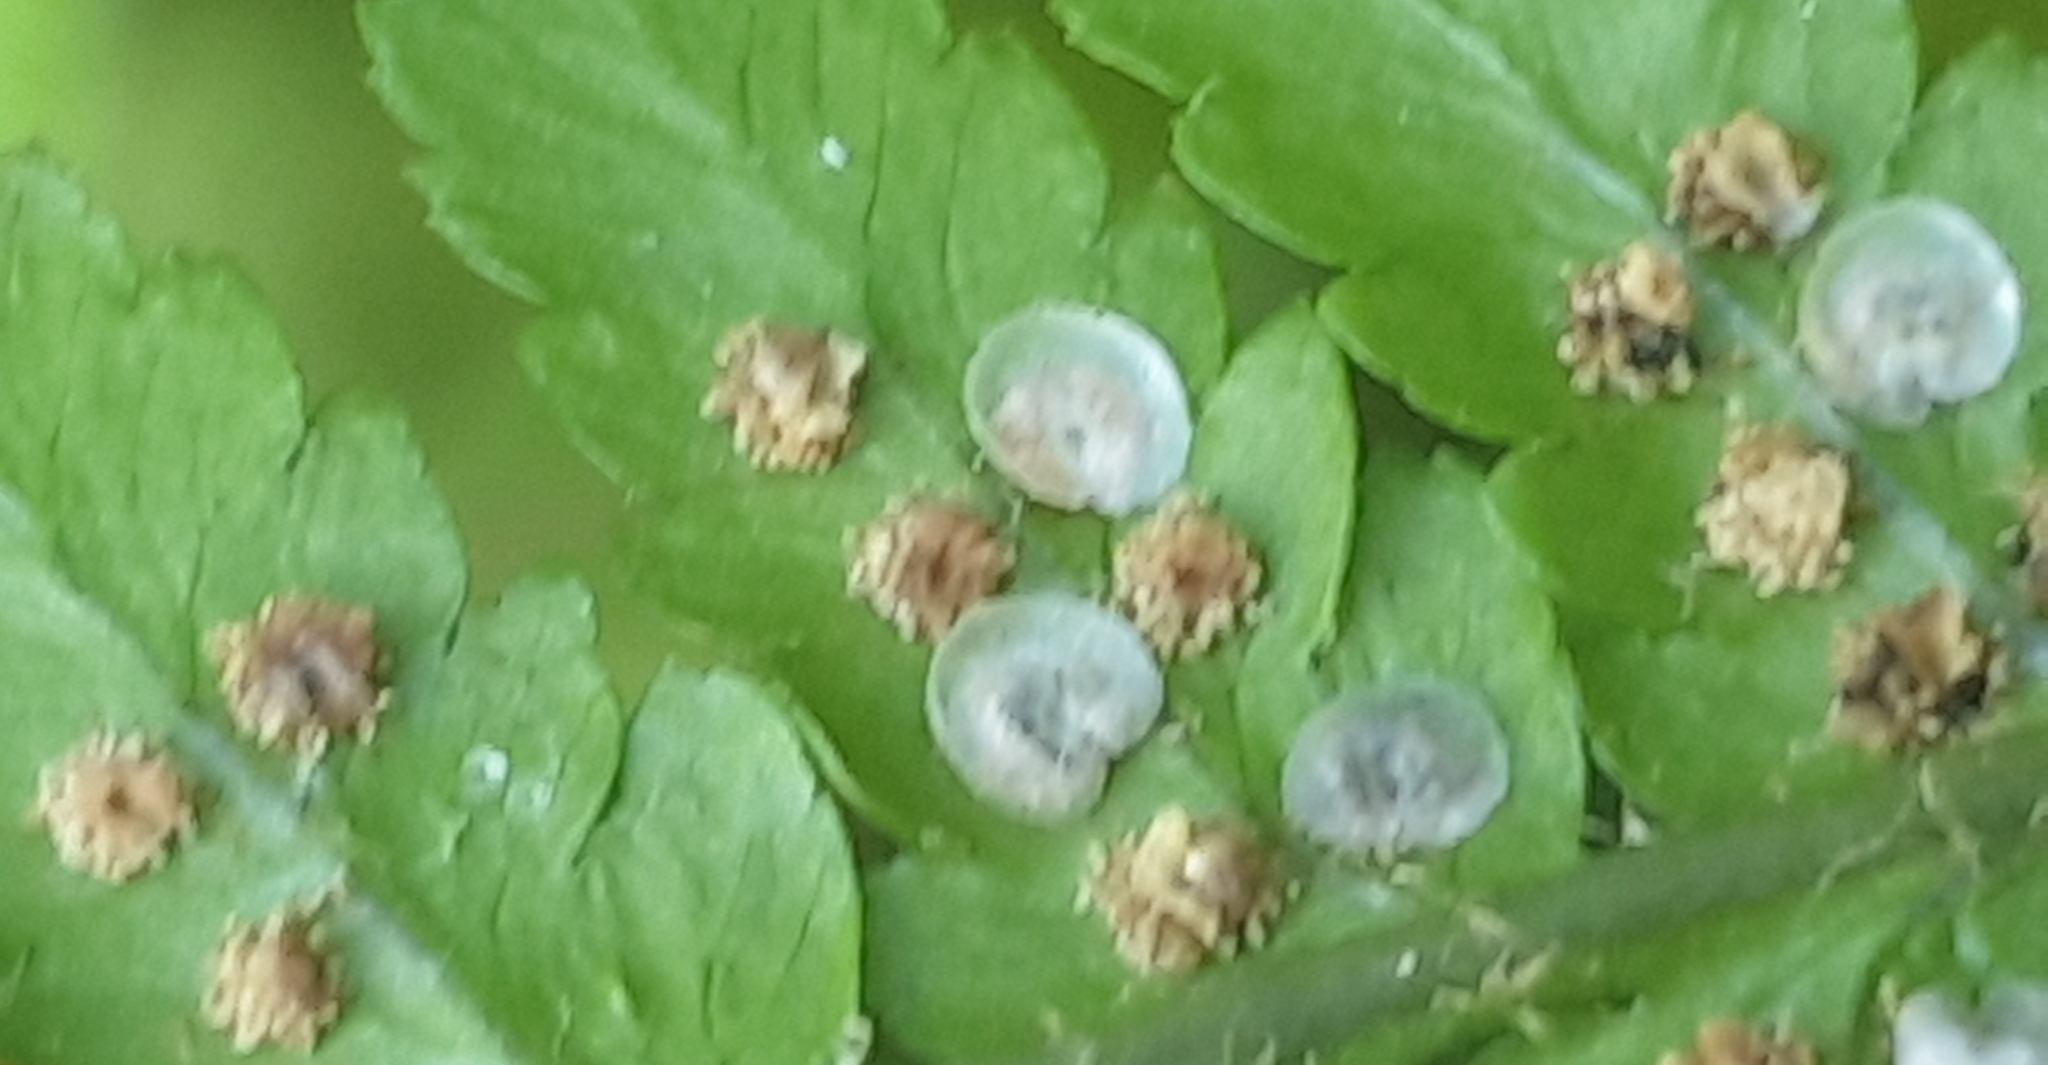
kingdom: Plantae
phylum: Tracheophyta
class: Polypodiopsida
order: Polypodiales
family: Dryopteridaceae
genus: Dryopteris
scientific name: Dryopteris filix-mas
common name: Male fern
